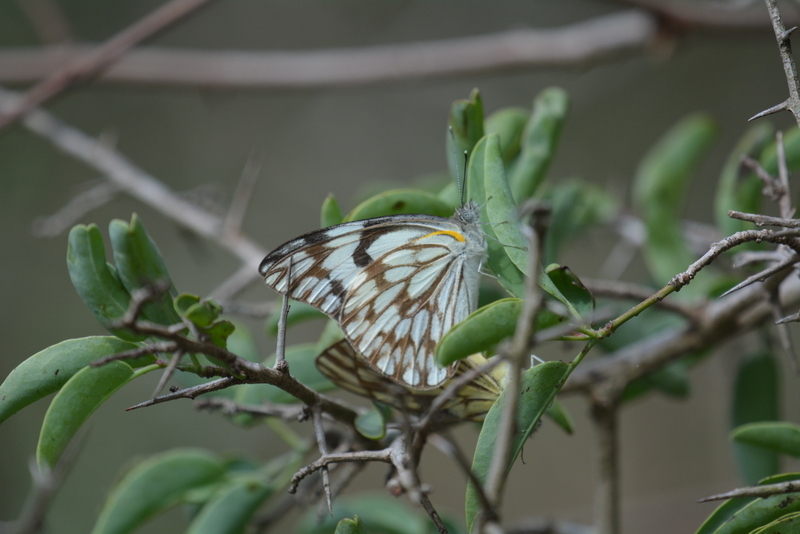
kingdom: Animalia
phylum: Arthropoda
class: Insecta
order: Lepidoptera
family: Pieridae
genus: Belenois
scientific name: Belenois gidica
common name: Pointed caper white
